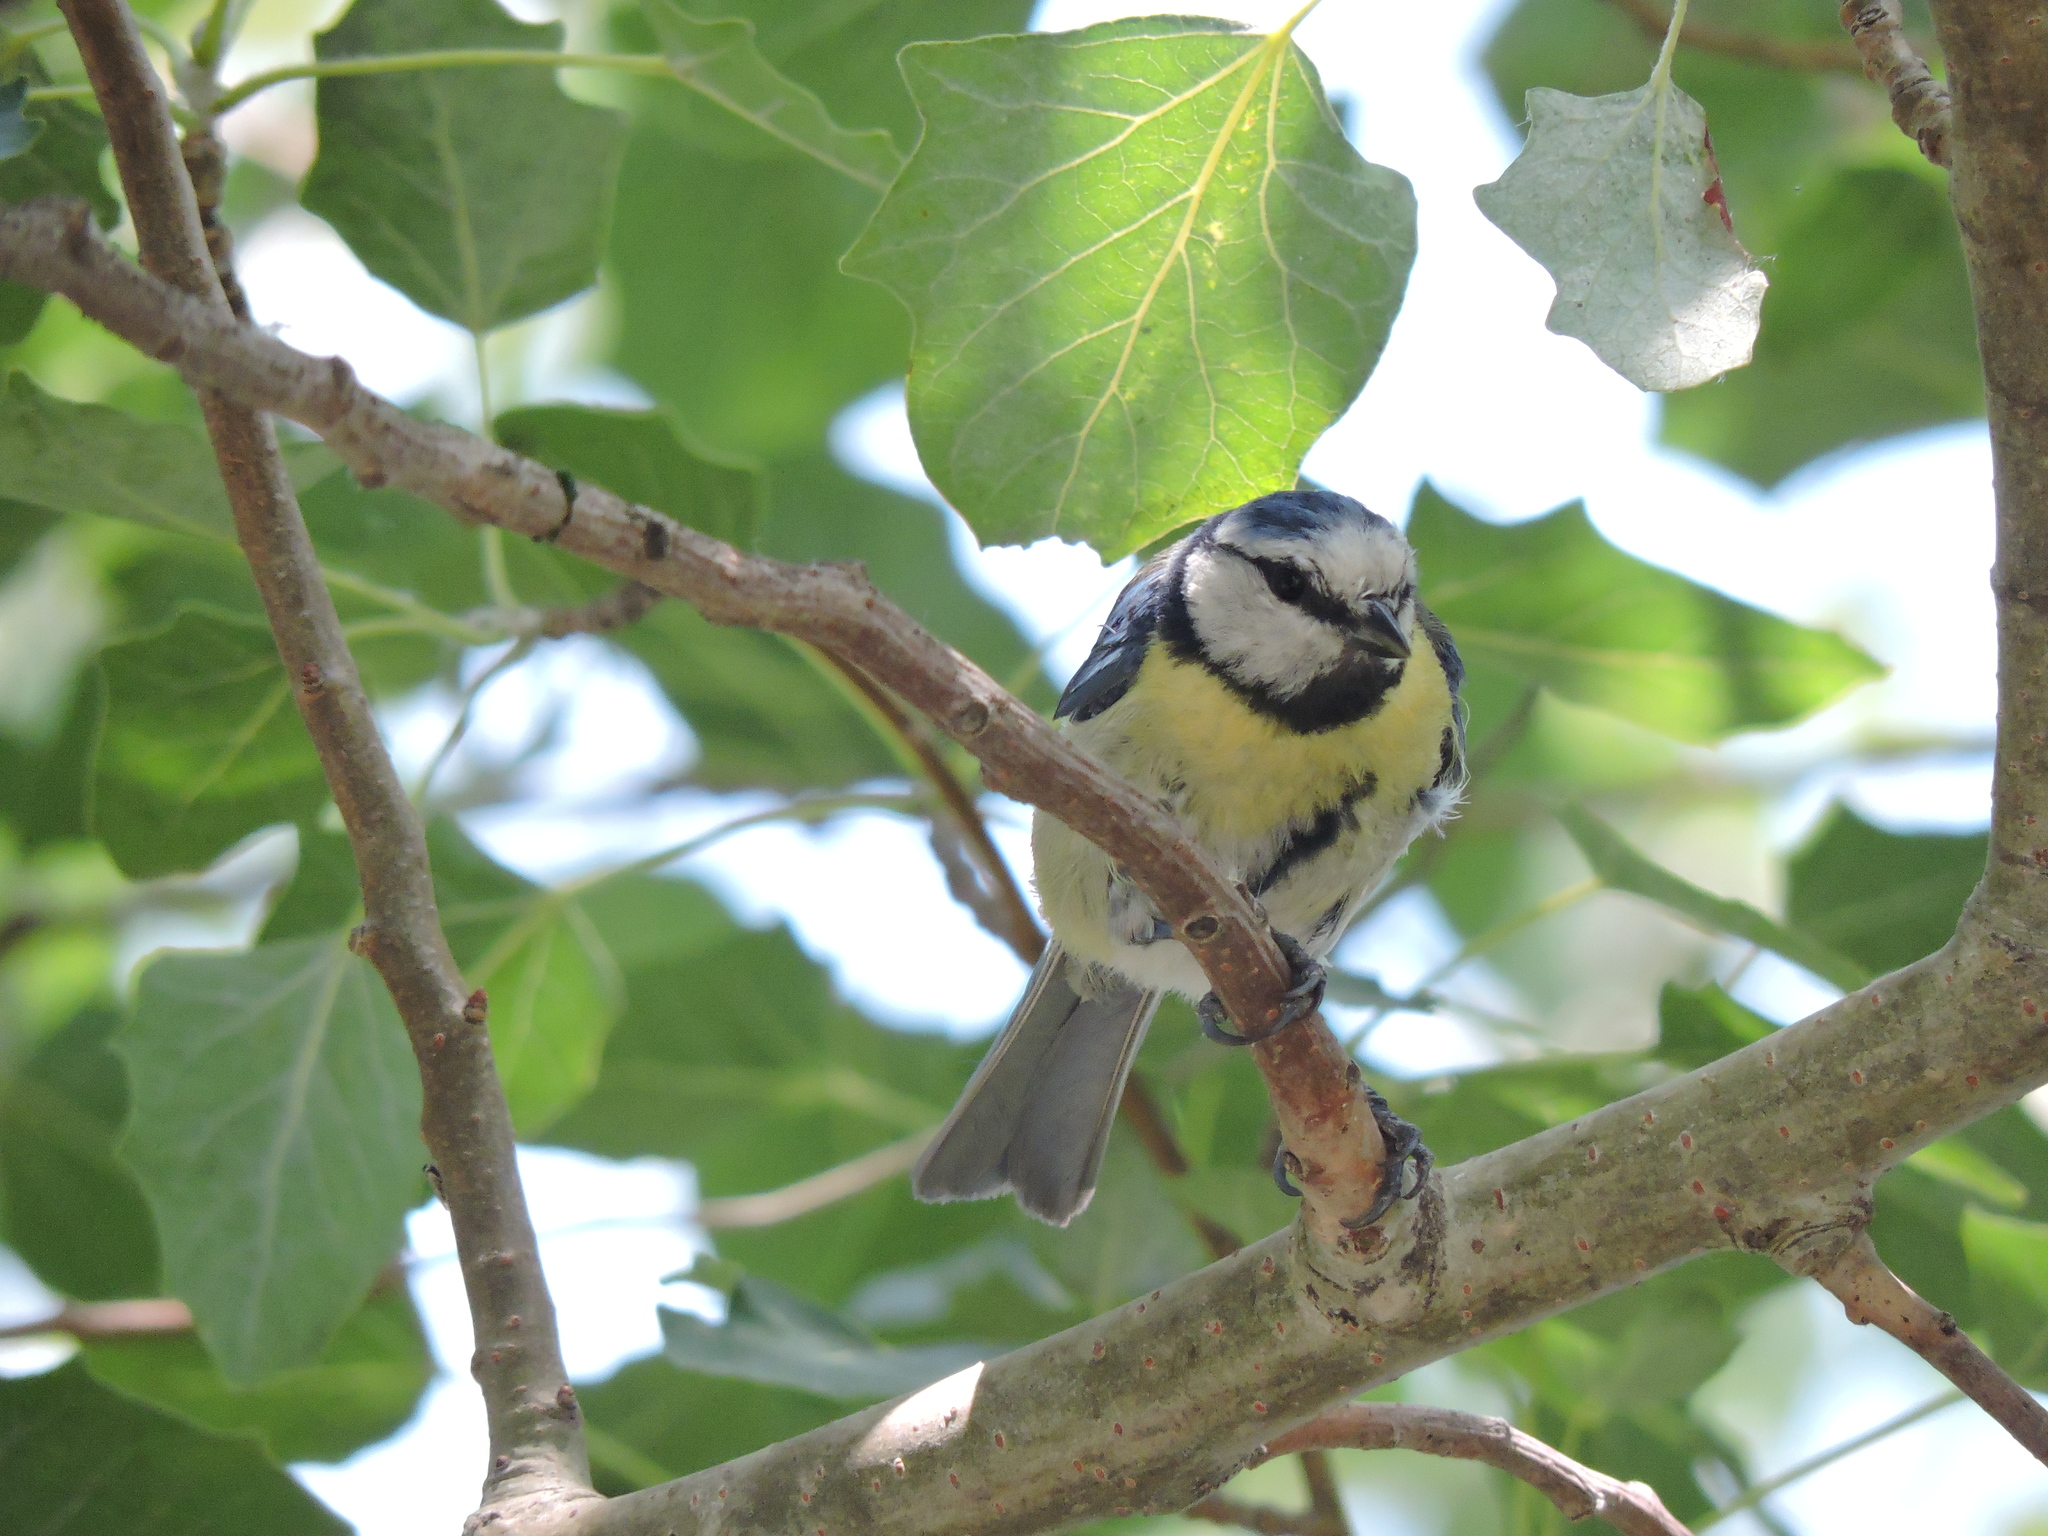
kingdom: Animalia
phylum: Chordata
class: Aves
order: Passeriformes
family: Paridae
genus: Cyanistes
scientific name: Cyanistes caeruleus
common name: Eurasian blue tit
